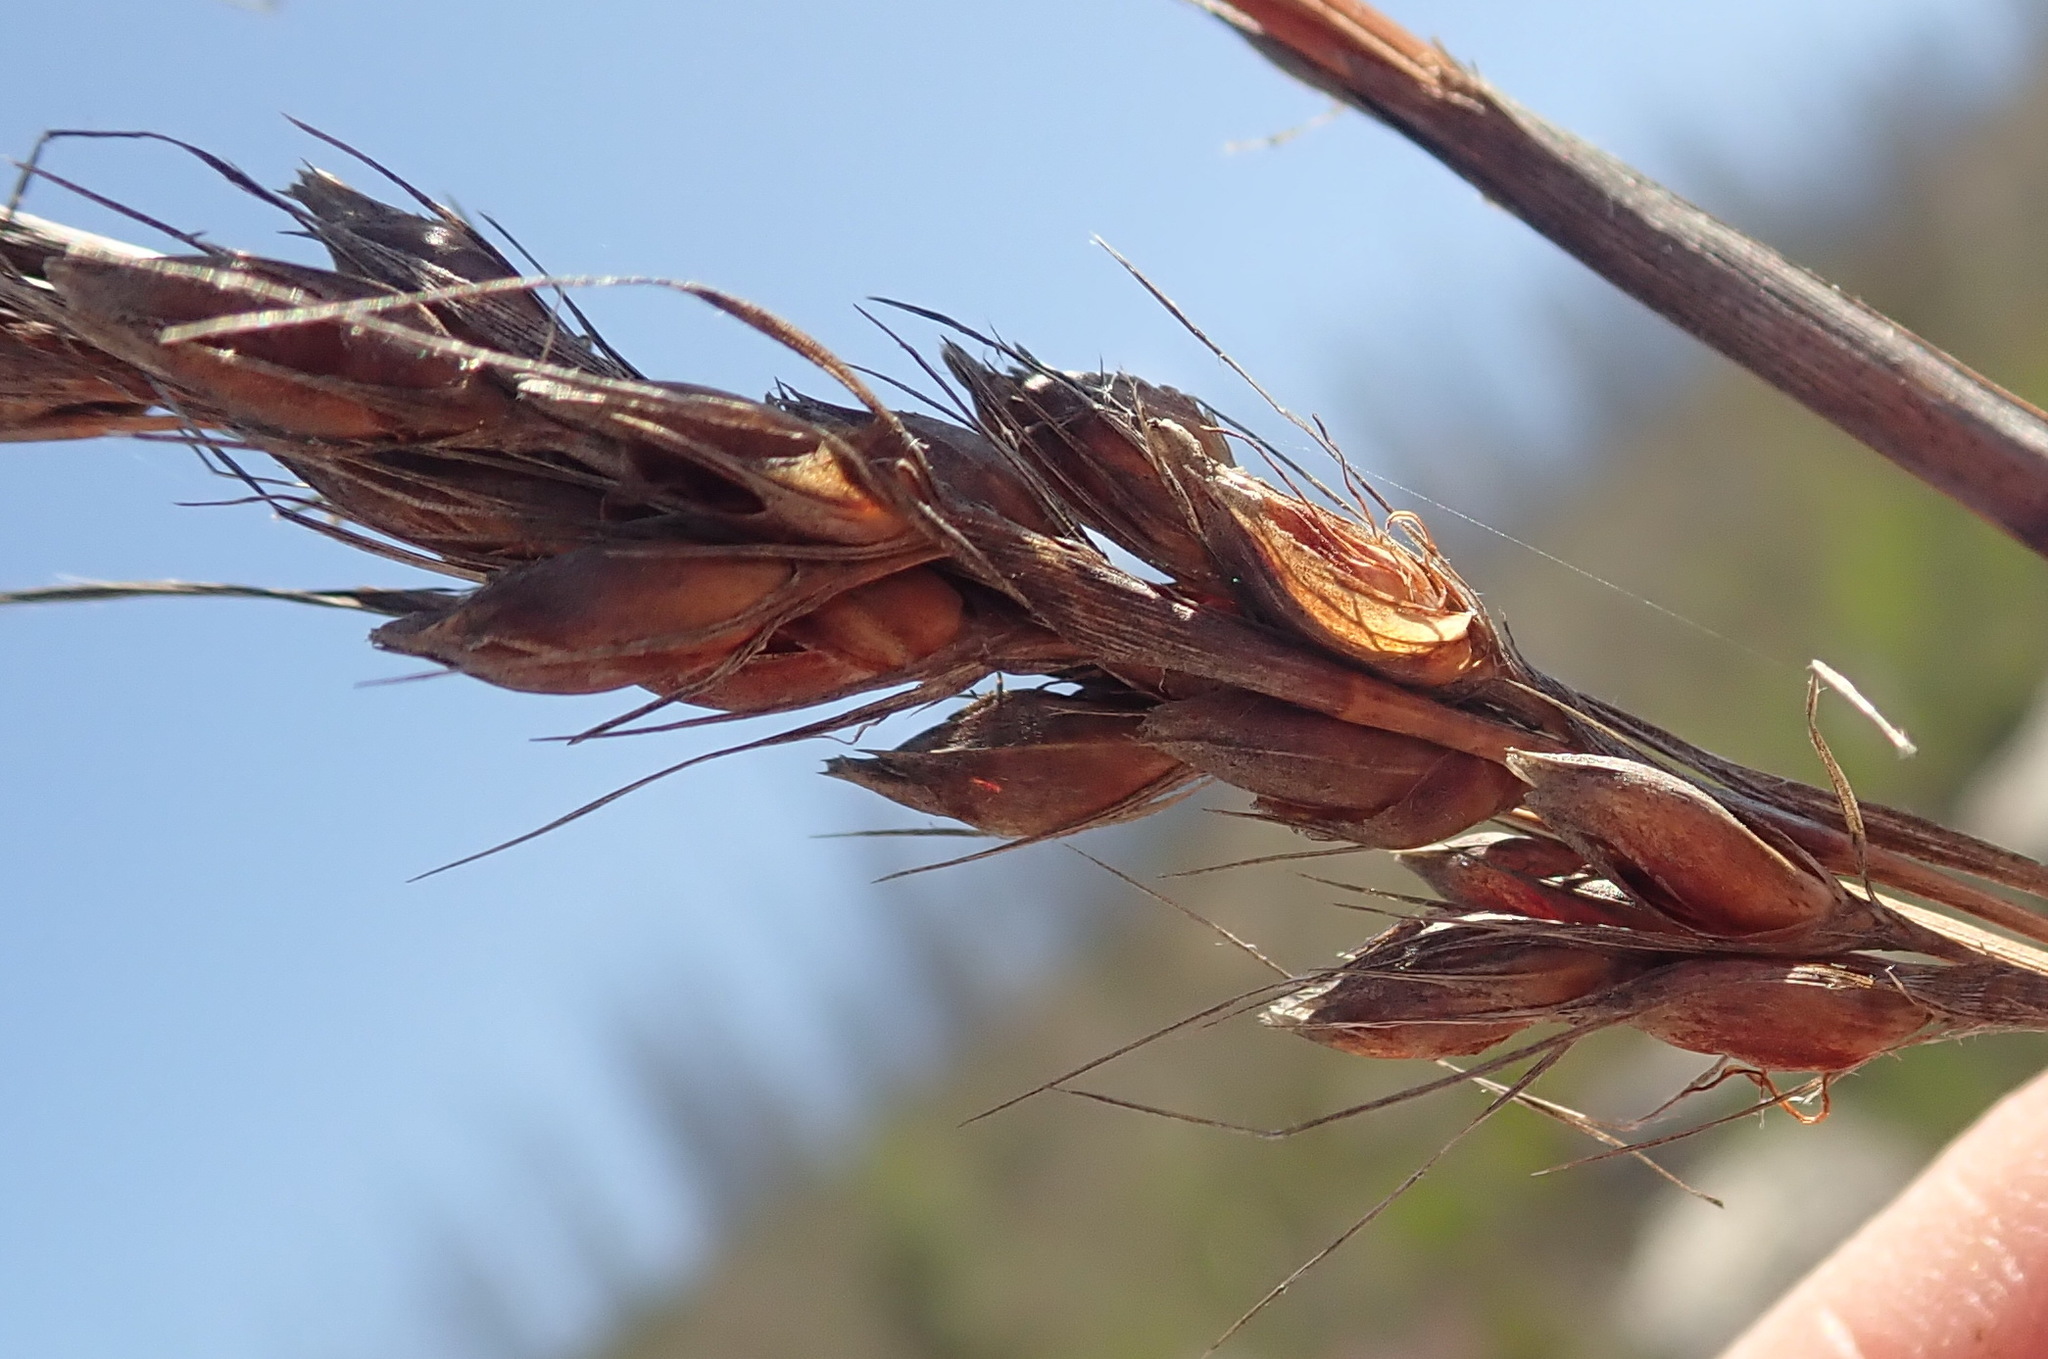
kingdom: Plantae
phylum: Tracheophyta
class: Liliopsida
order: Poales
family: Cyperaceae
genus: Tetraria
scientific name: Tetraria involucrata
